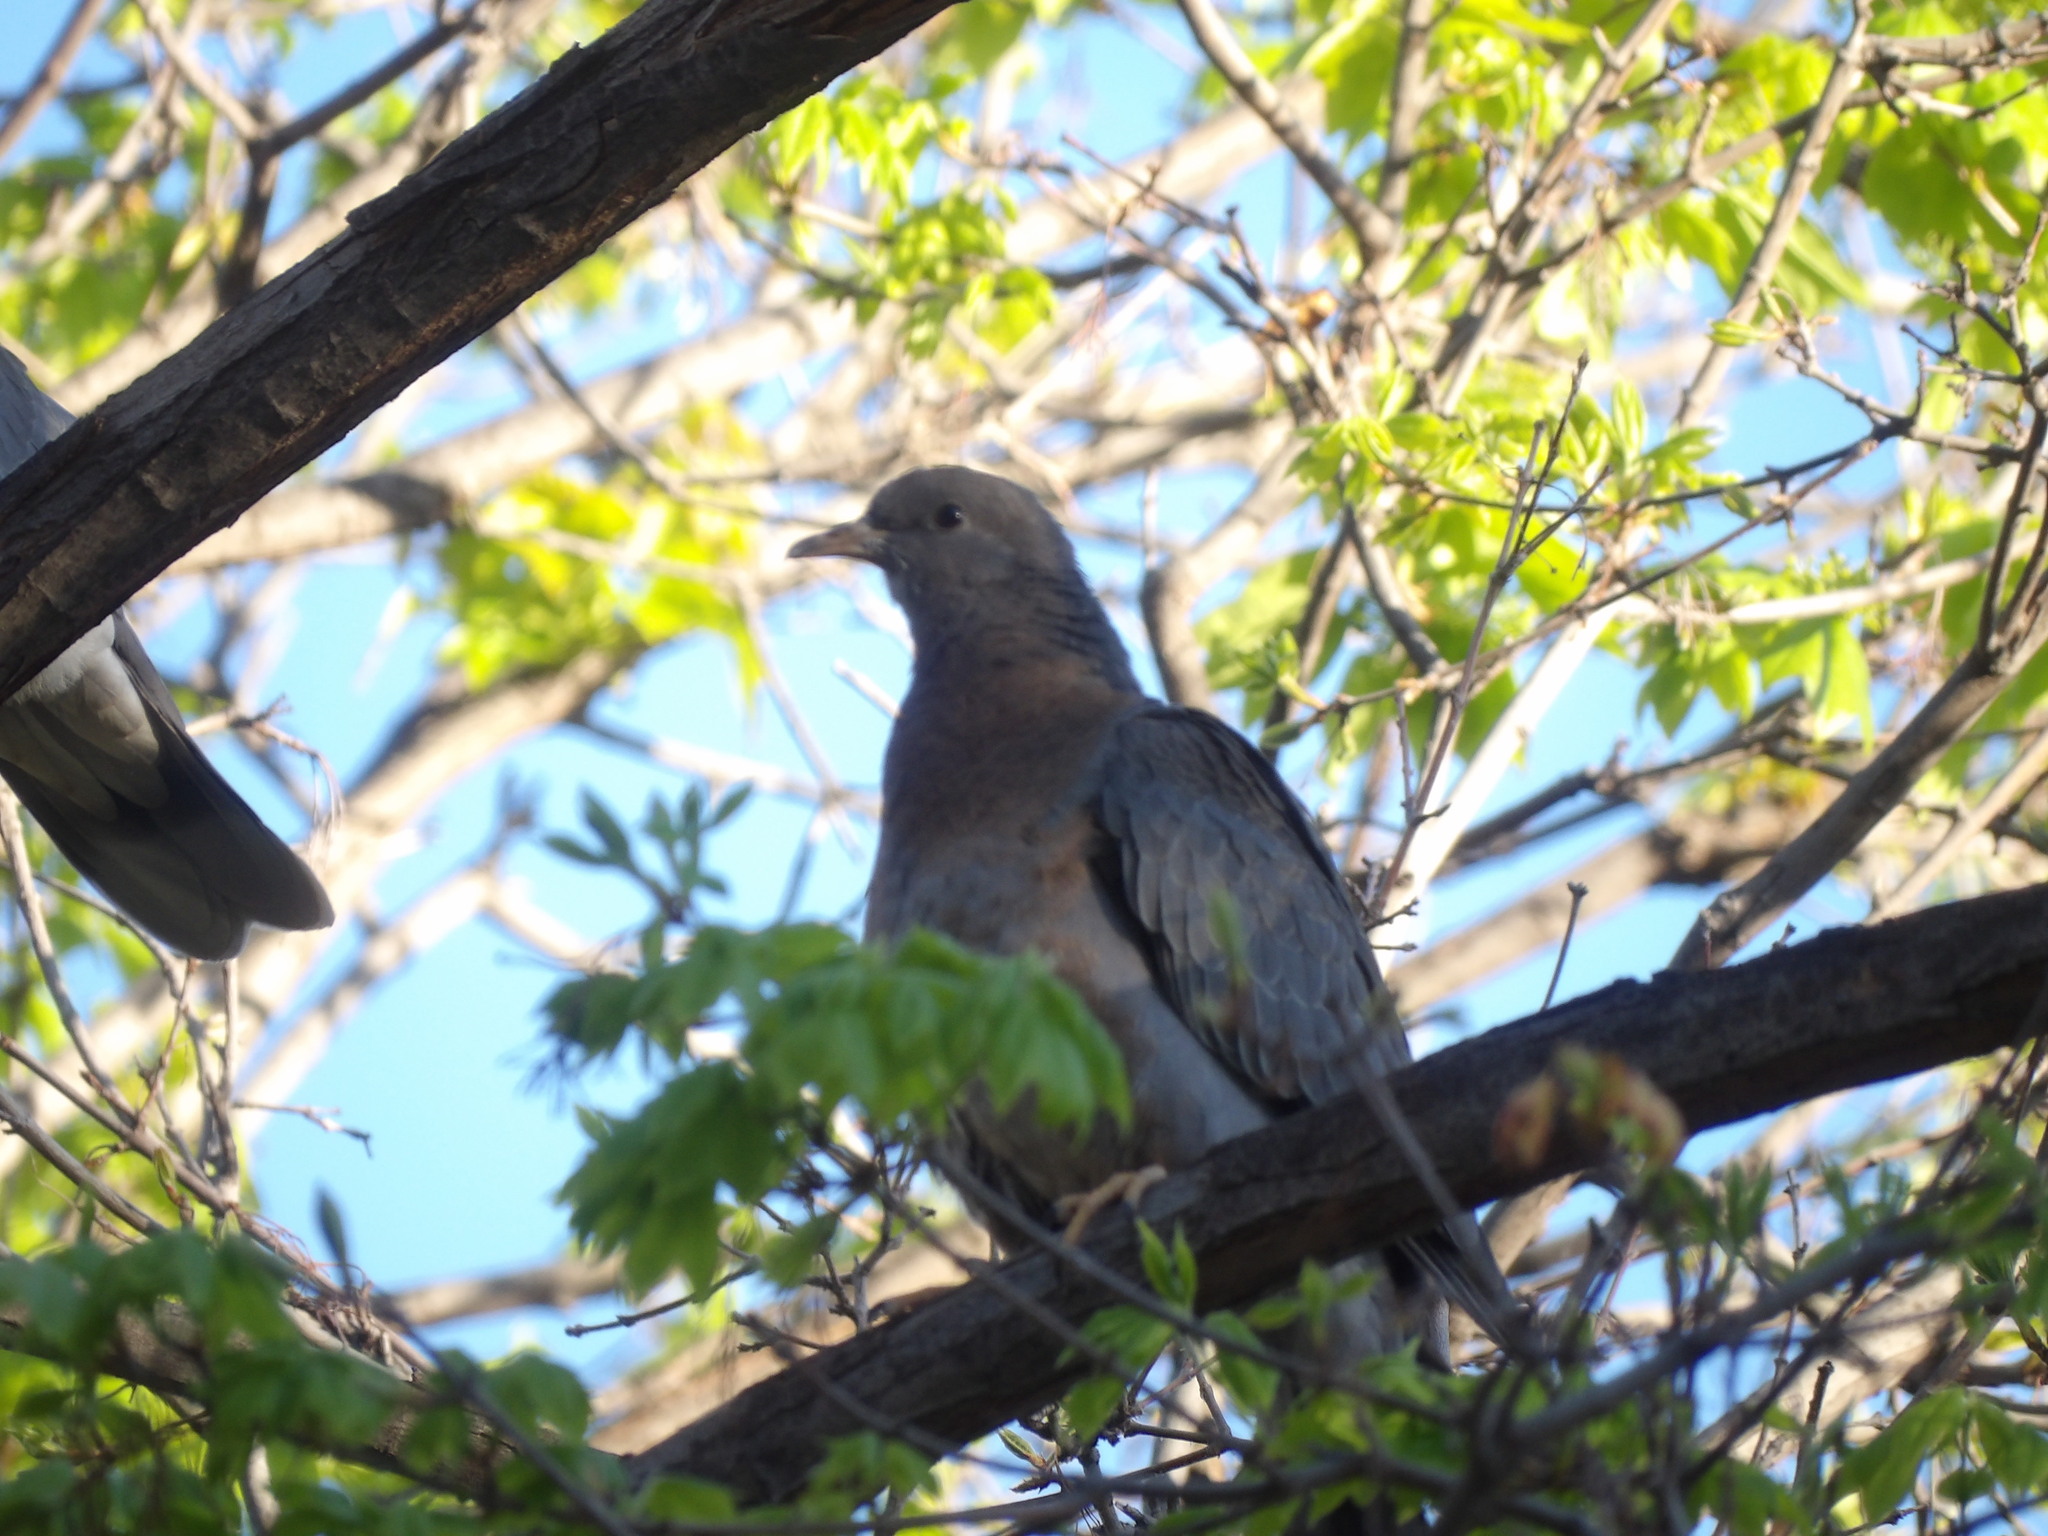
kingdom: Animalia
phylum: Chordata
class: Aves
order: Columbiformes
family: Columbidae
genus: Patagioenas
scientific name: Patagioenas fasciata
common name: Band-tailed pigeon
